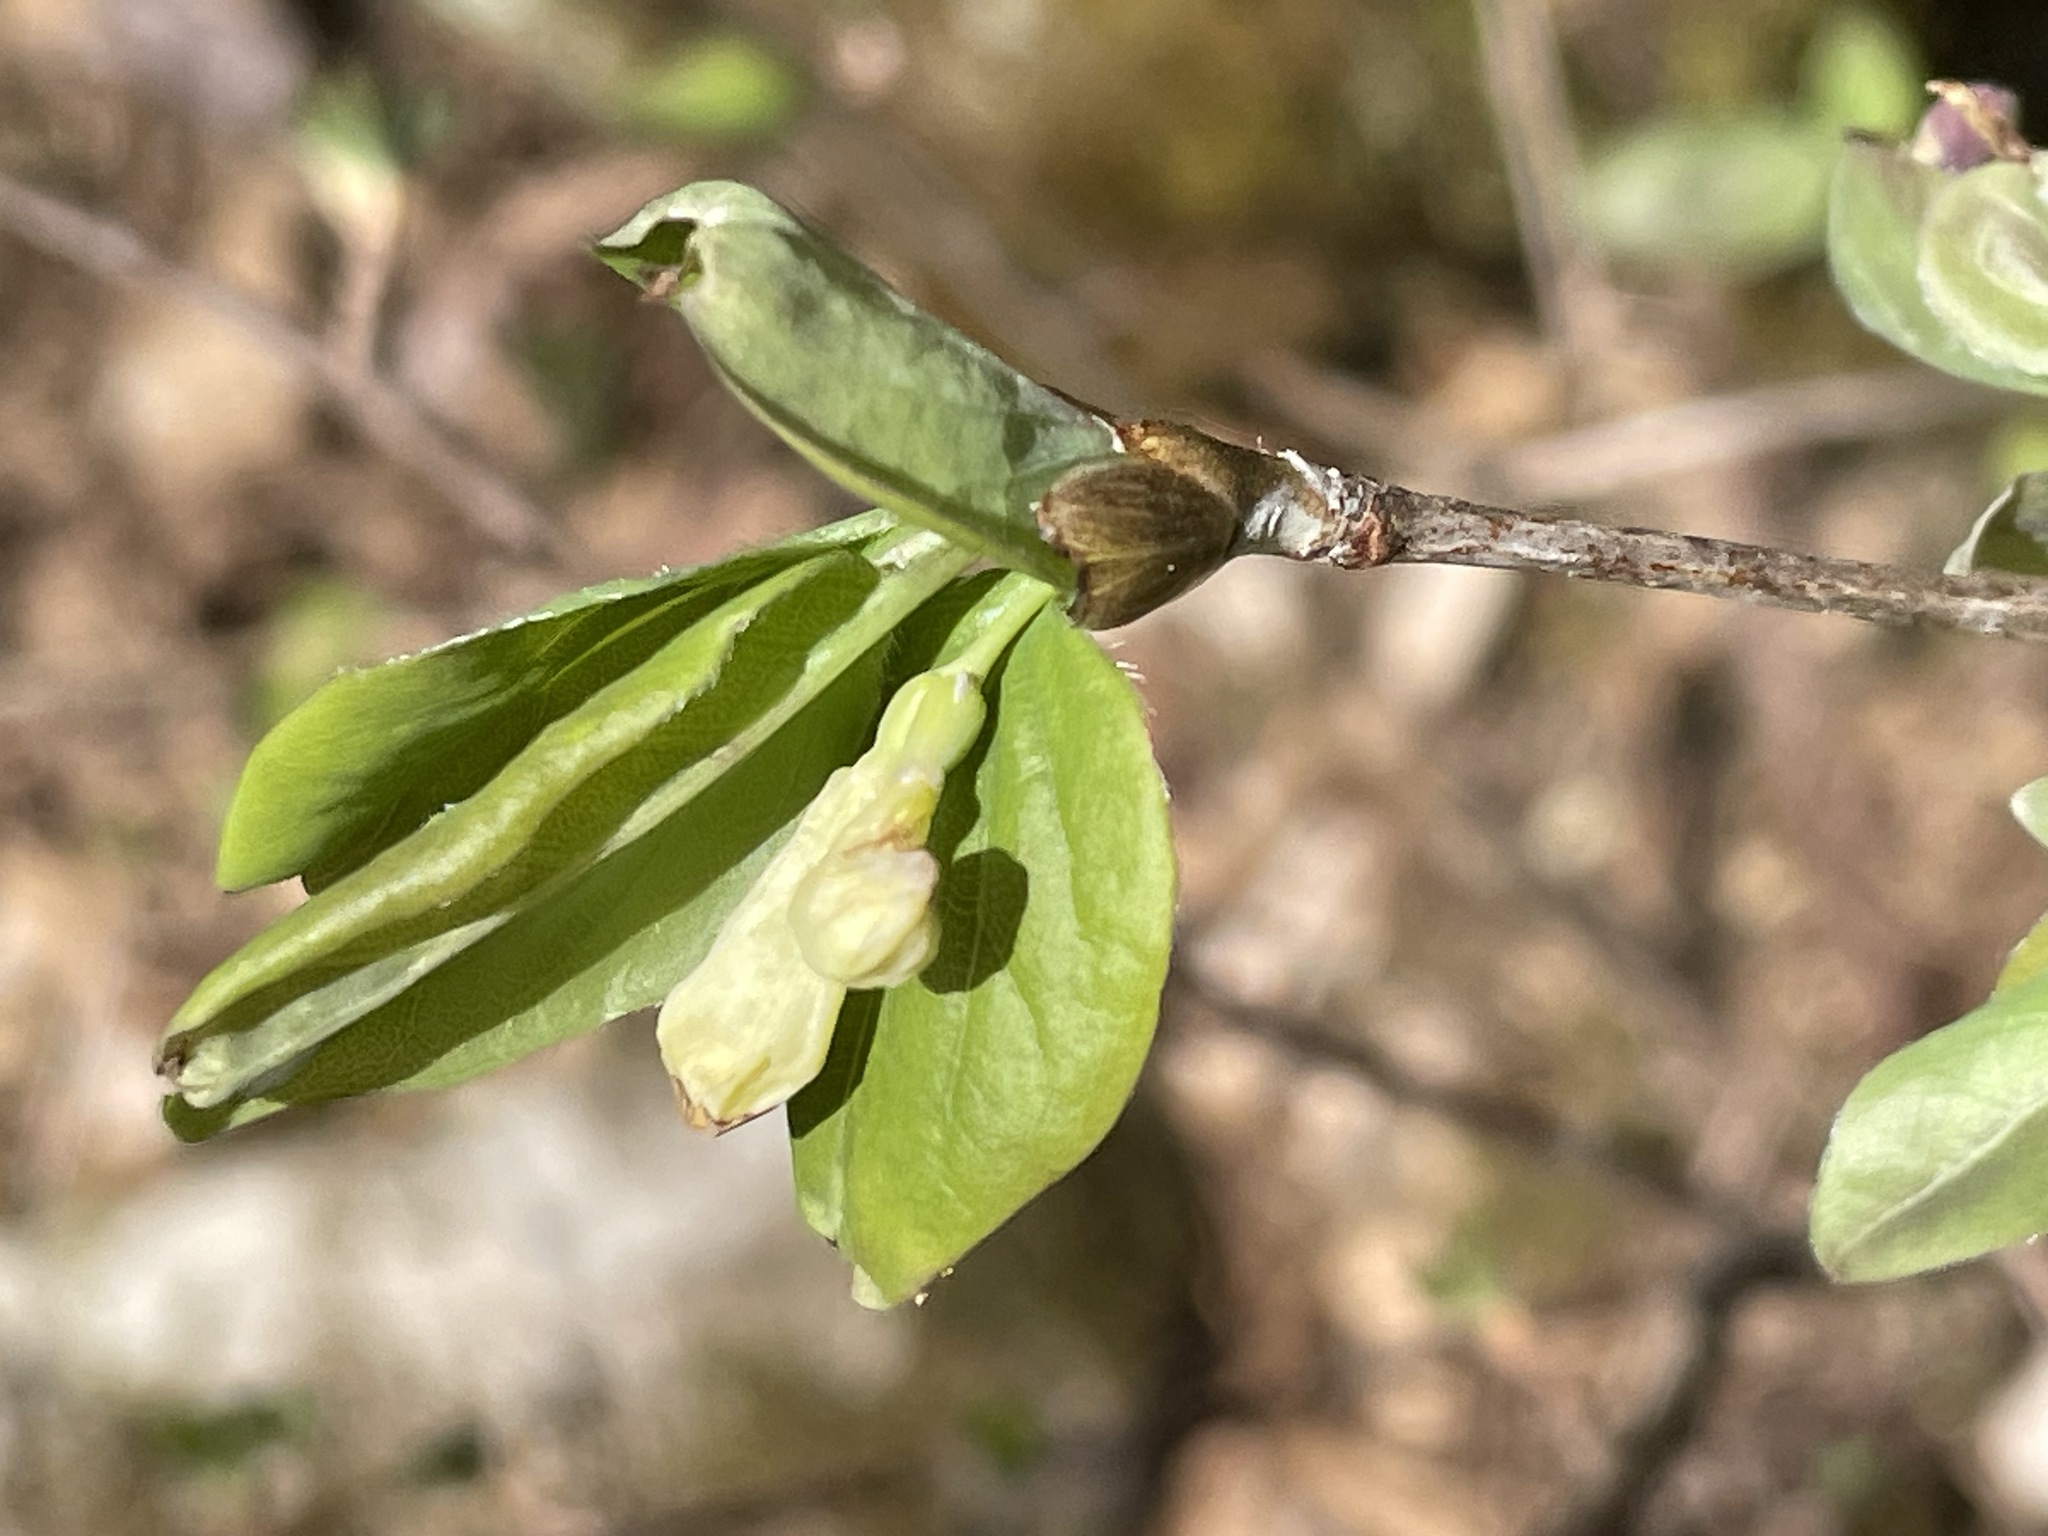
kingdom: Plantae
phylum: Tracheophyta
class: Magnoliopsida
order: Dipsacales
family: Caprifoliaceae
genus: Lonicera
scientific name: Lonicera canadensis
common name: American fly-honeysuckle
